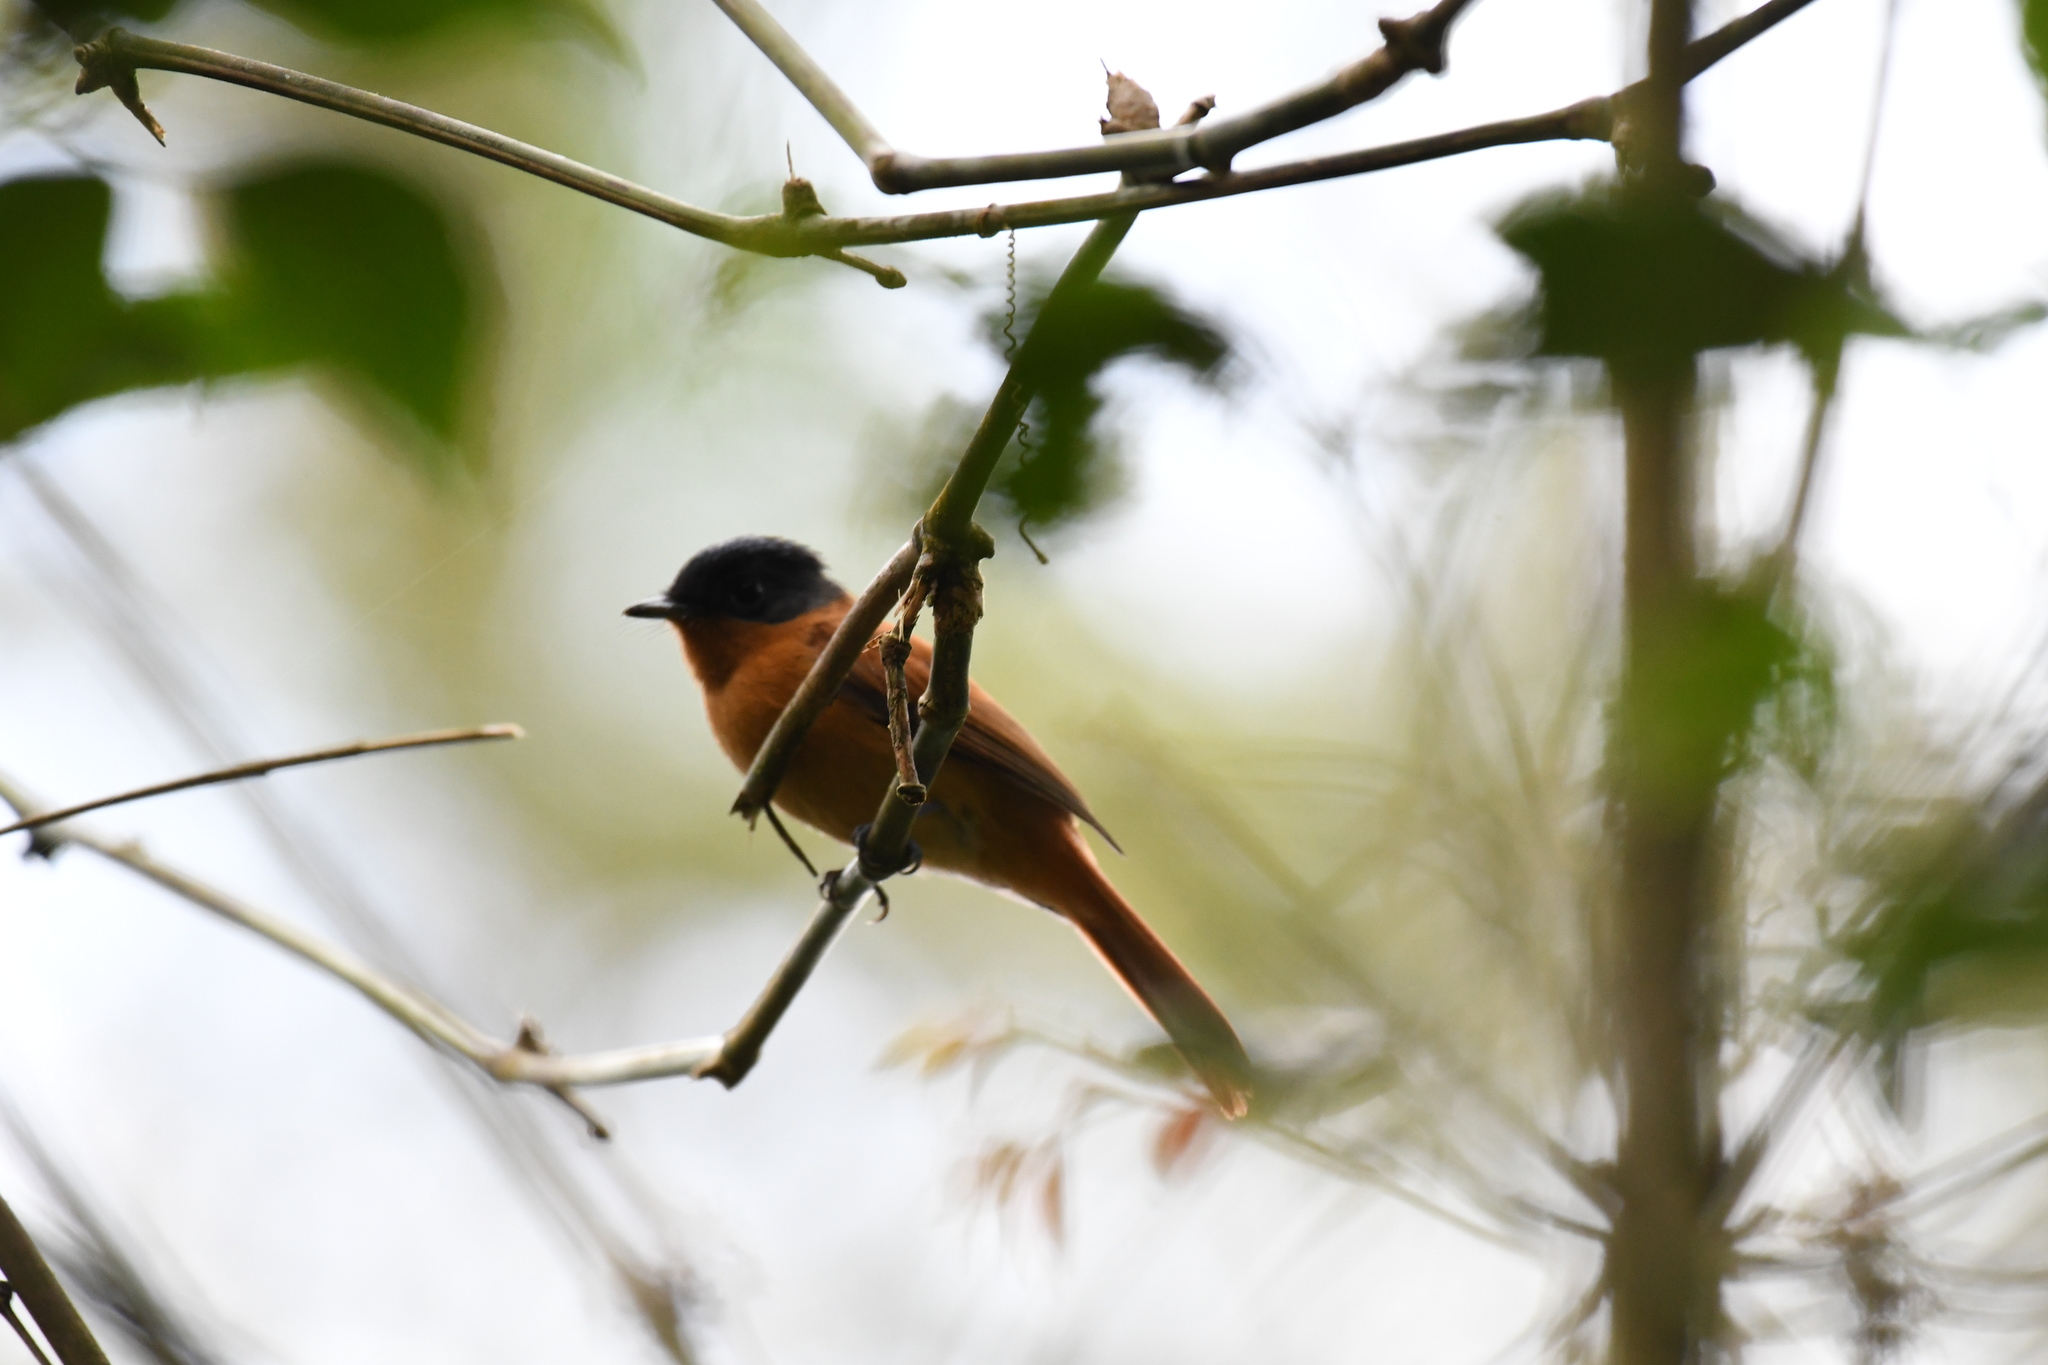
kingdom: Animalia
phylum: Chordata
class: Aves
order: Passeriformes
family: Monarchidae
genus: Terpsiphone
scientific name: Terpsiphone mutata
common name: Malagasy paradise flycatcher
